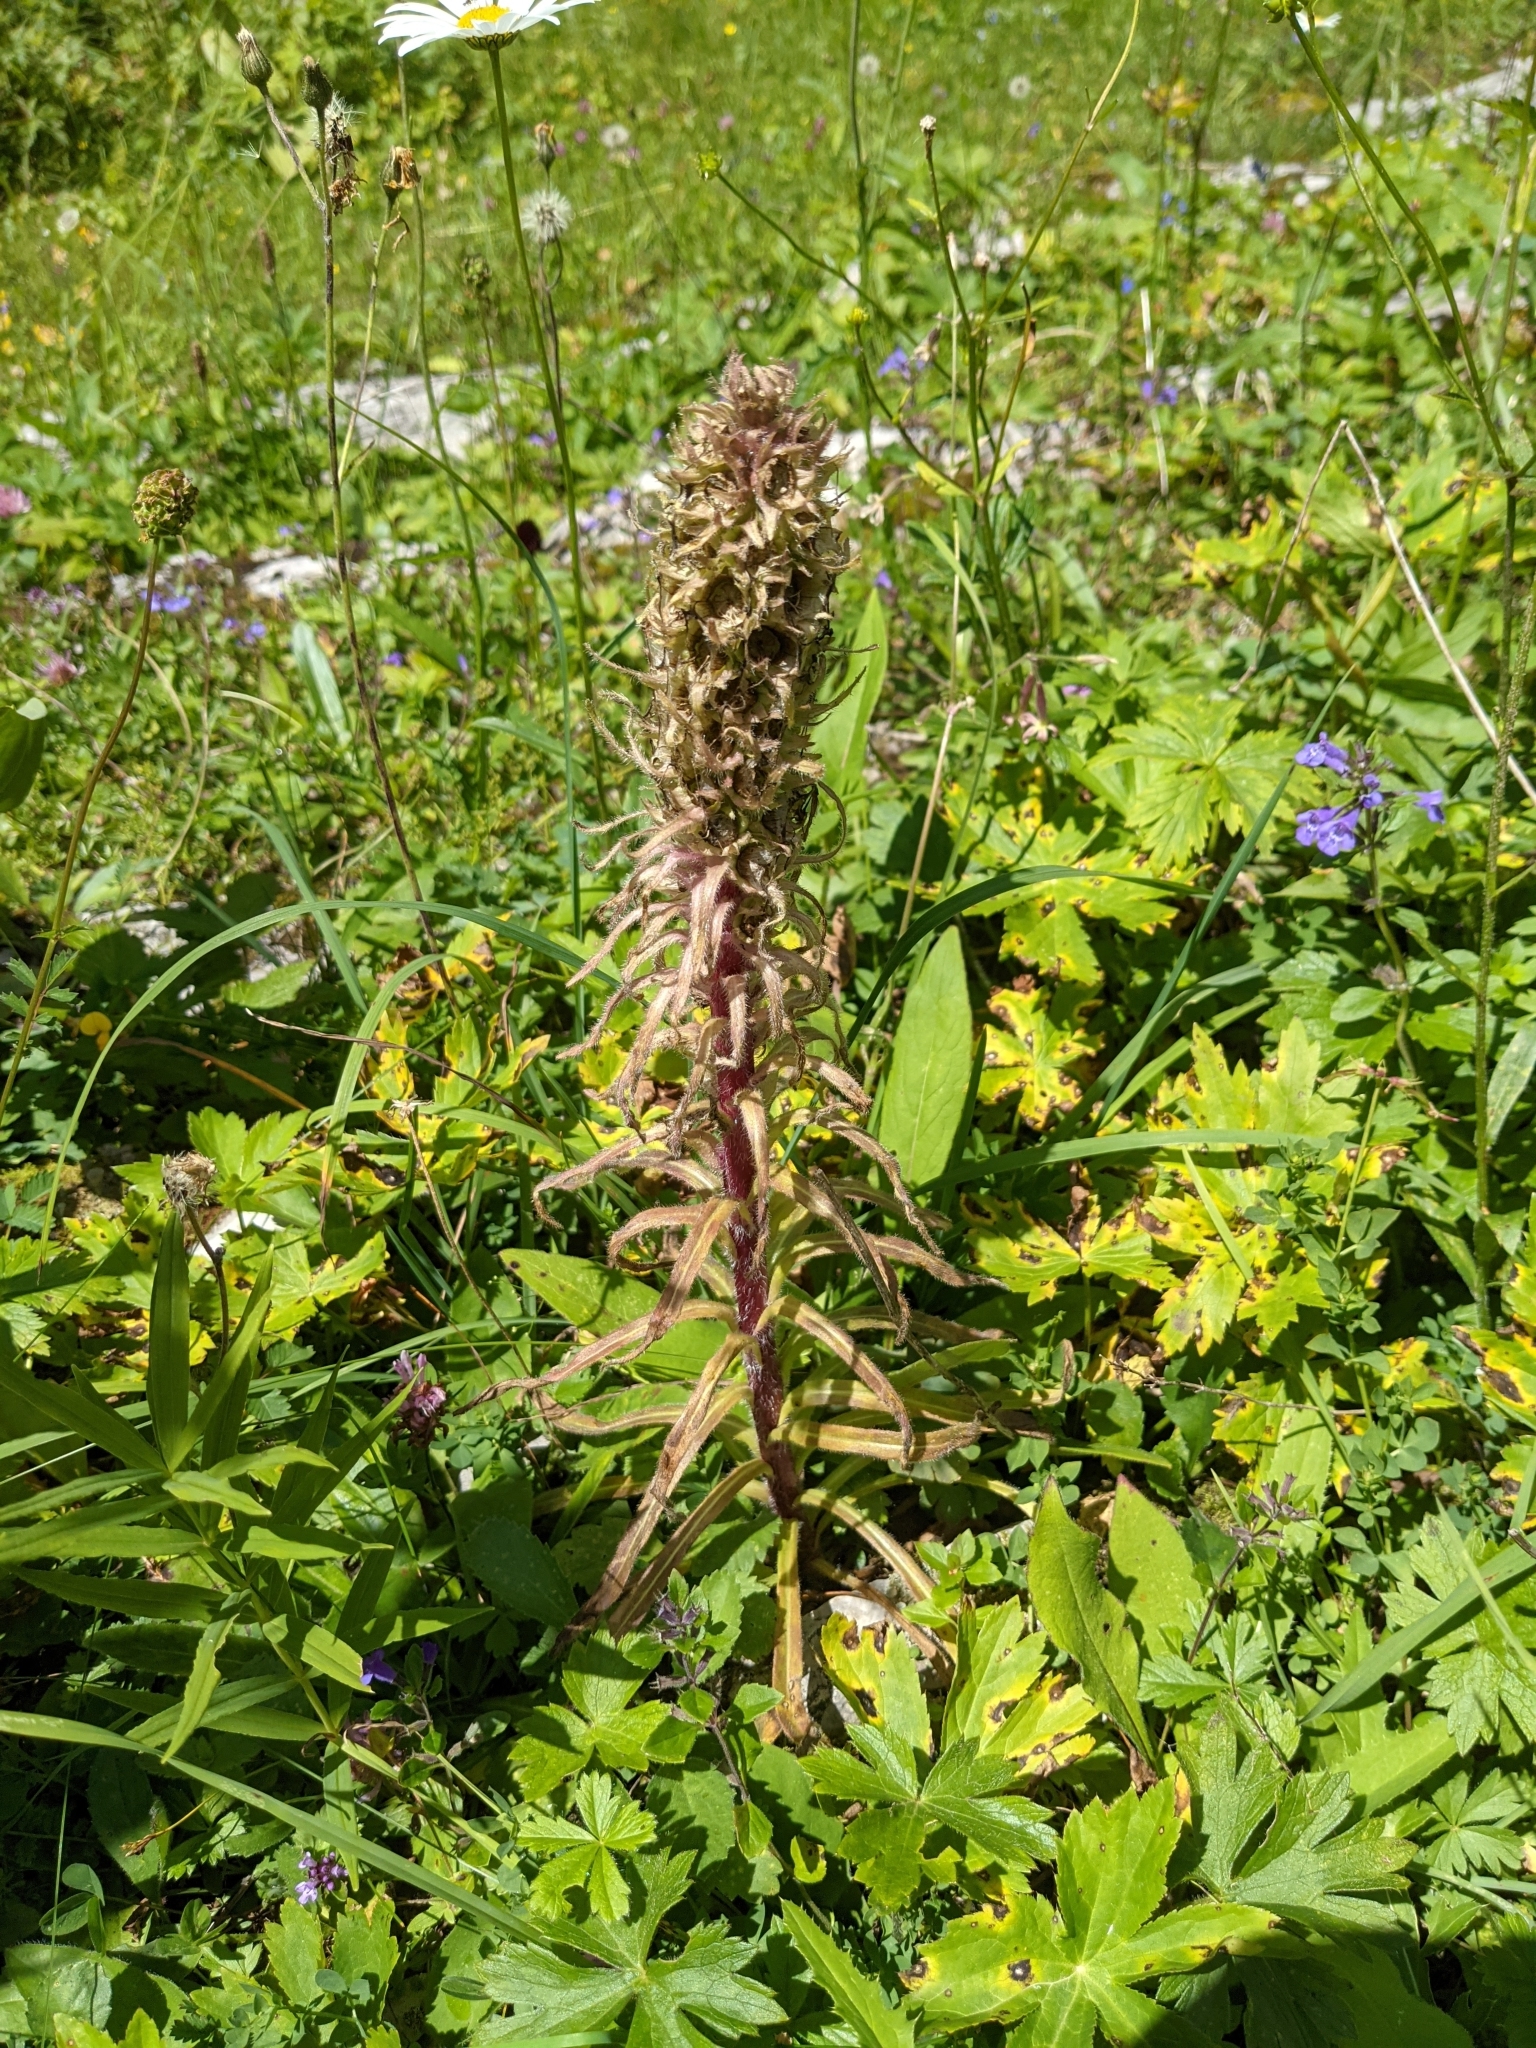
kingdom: Plantae
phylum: Tracheophyta
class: Magnoliopsida
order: Asterales
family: Campanulaceae
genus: Campanula
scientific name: Campanula thyrsoides
